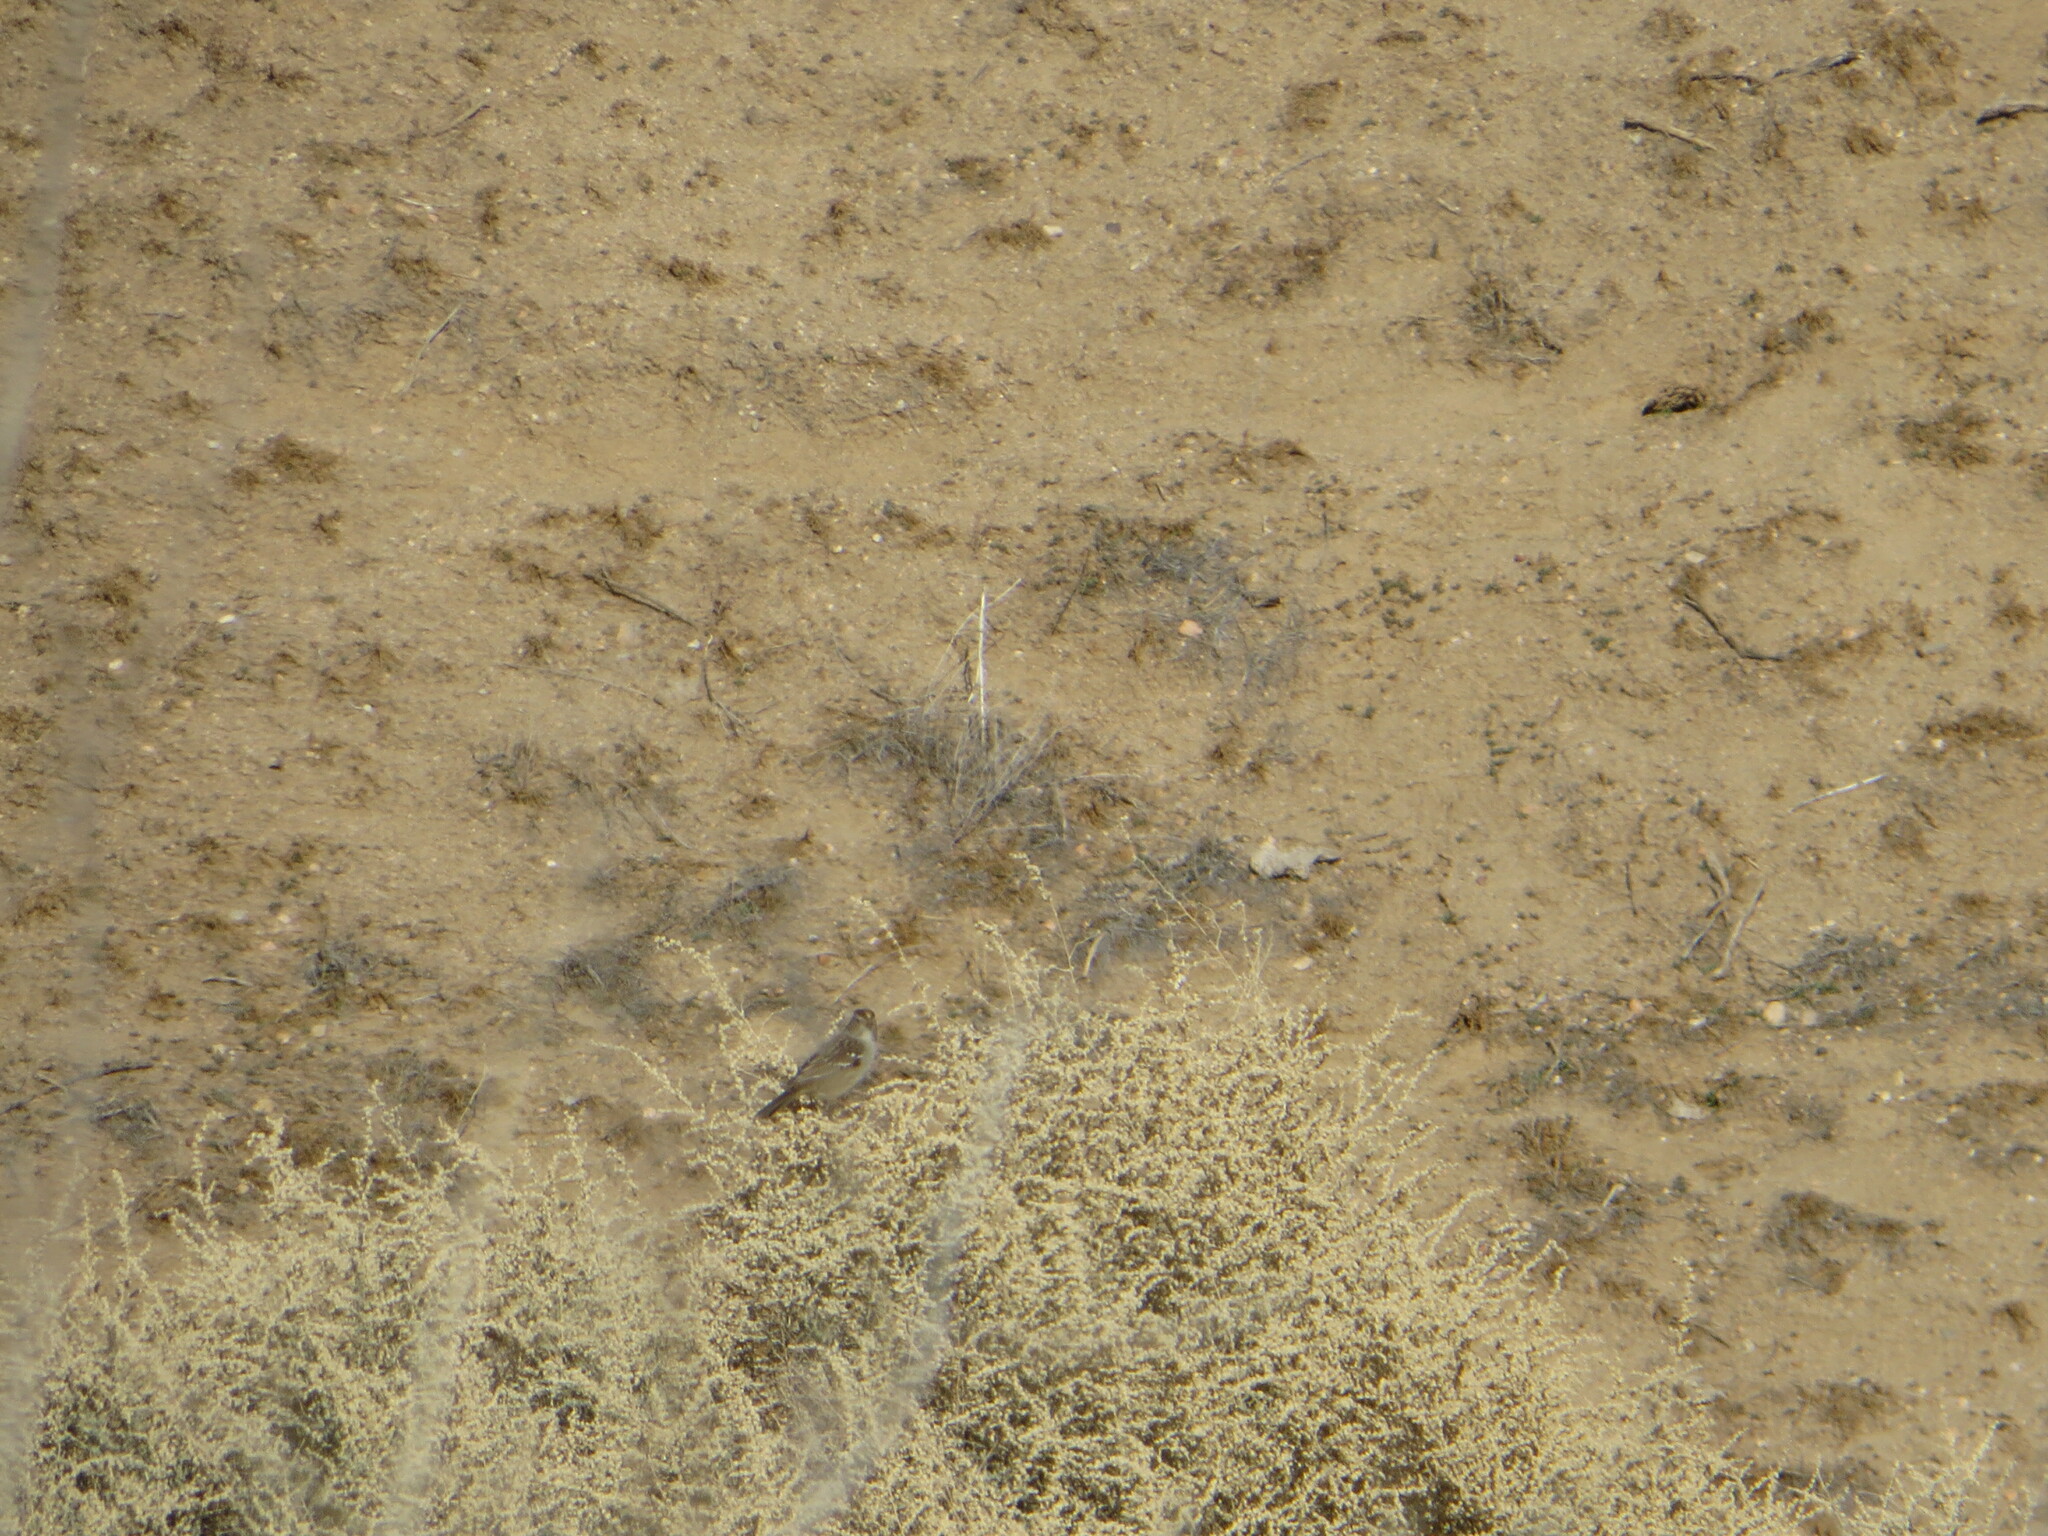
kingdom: Animalia
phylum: Chordata
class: Aves
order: Passeriformes
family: Passerellidae
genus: Zonotrichia
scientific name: Zonotrichia leucophrys
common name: White-crowned sparrow
